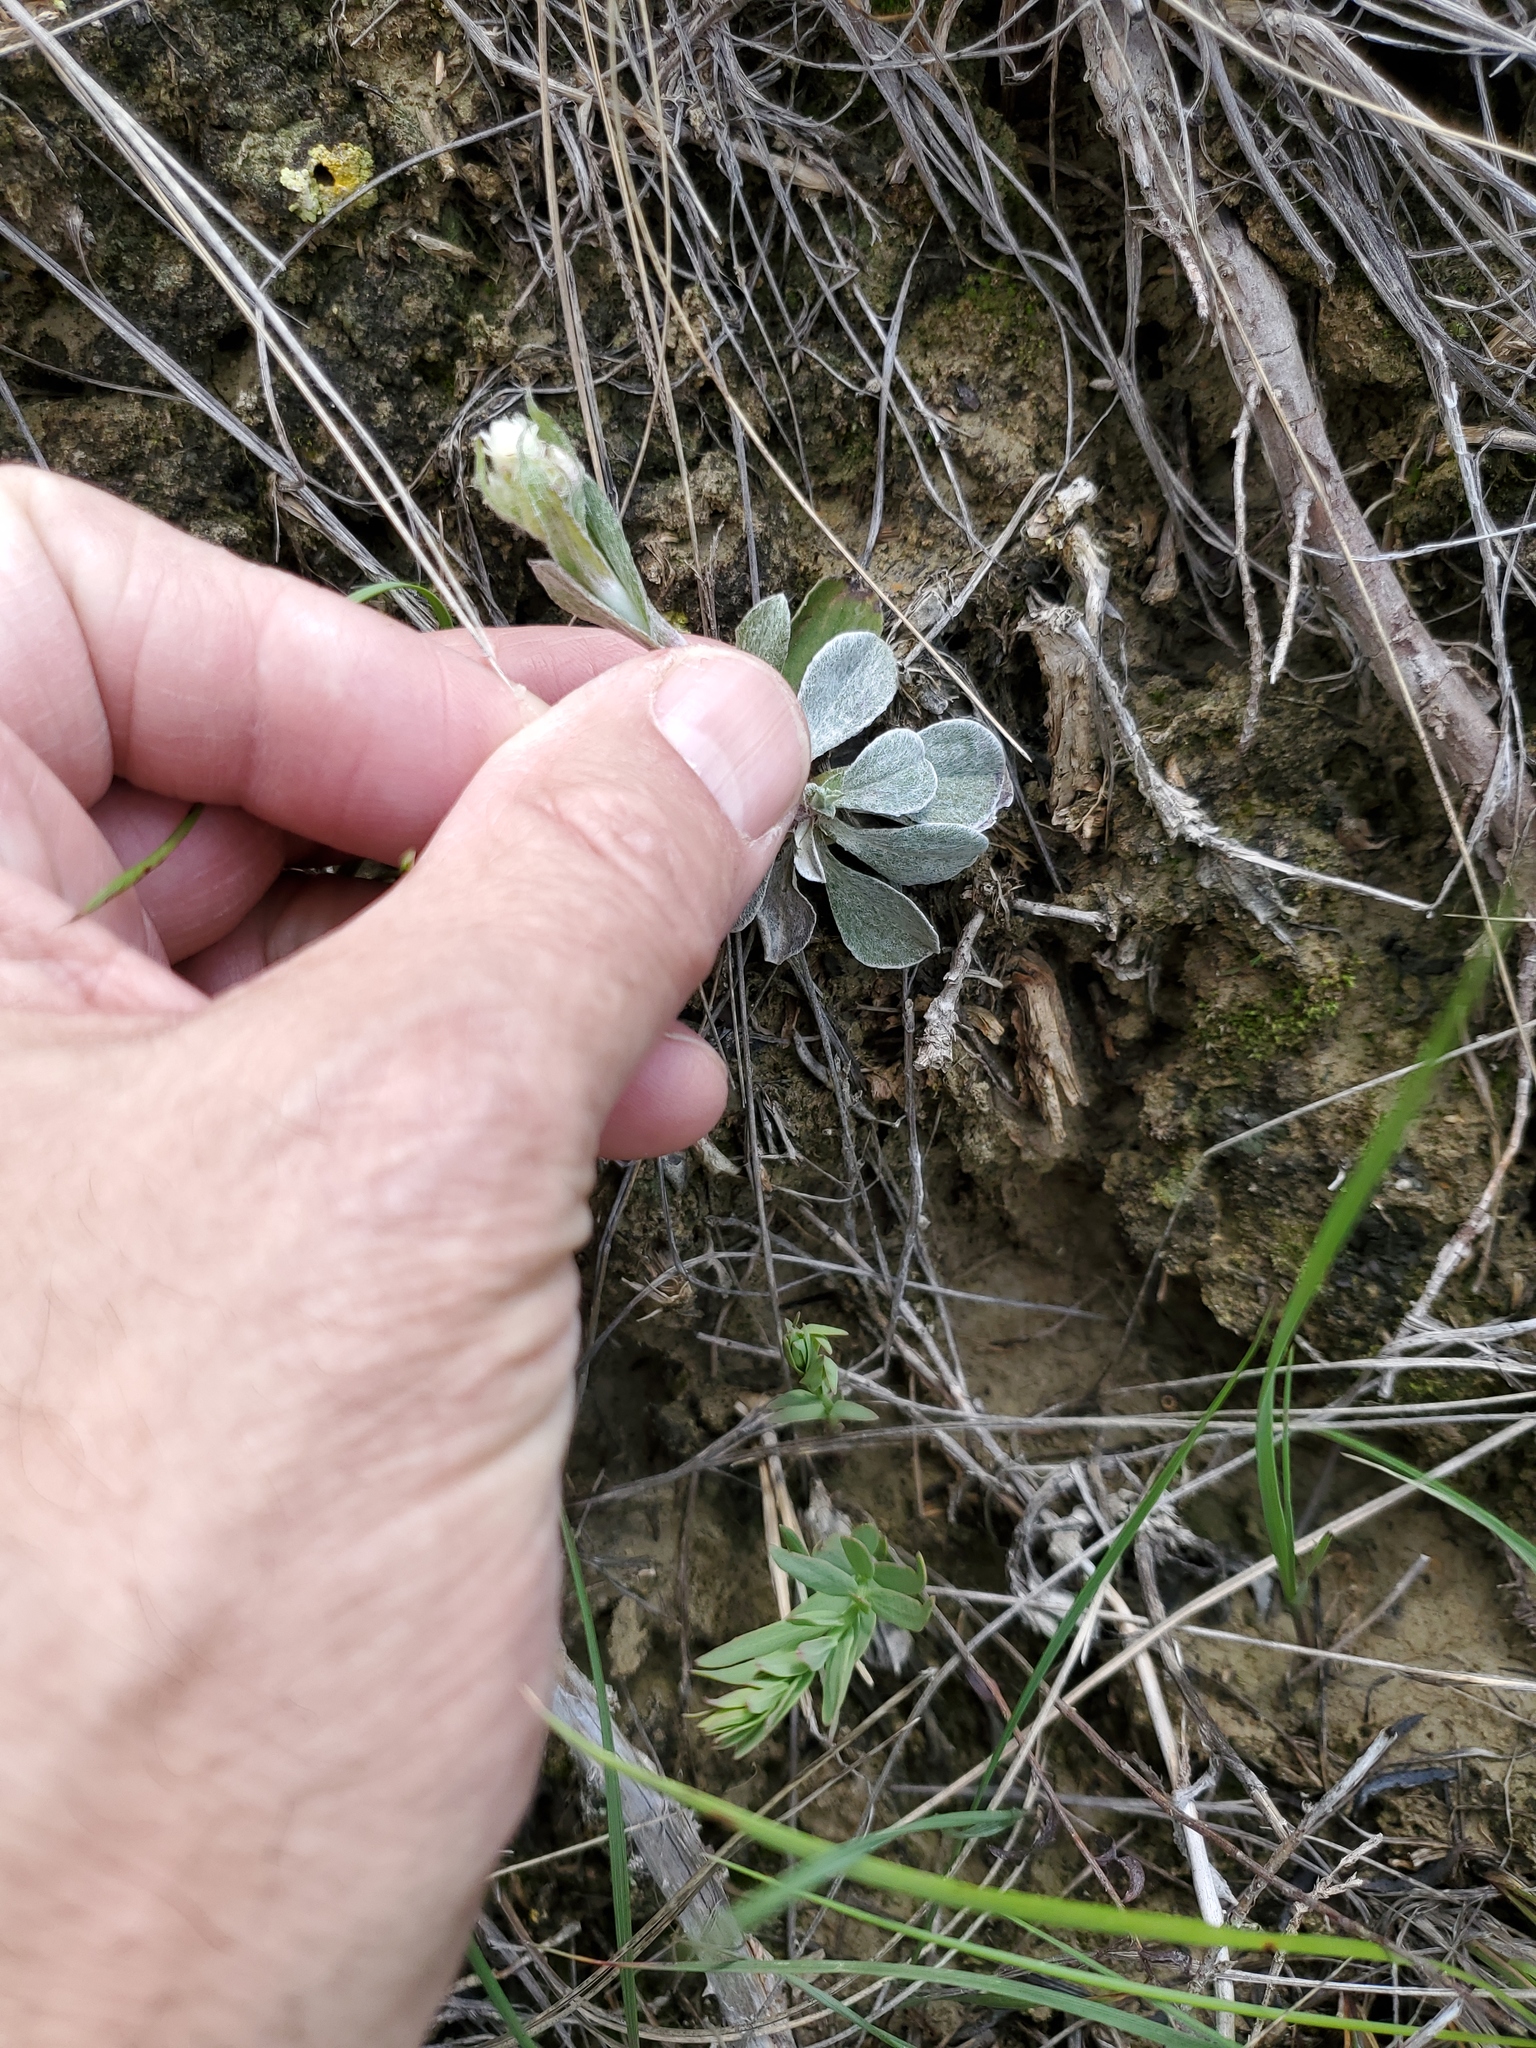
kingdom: Plantae
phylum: Tracheophyta
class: Magnoliopsida
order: Asterales
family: Asteraceae
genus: Antennaria
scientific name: Antennaria parvifolia
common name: Nuttall's pussytoes
